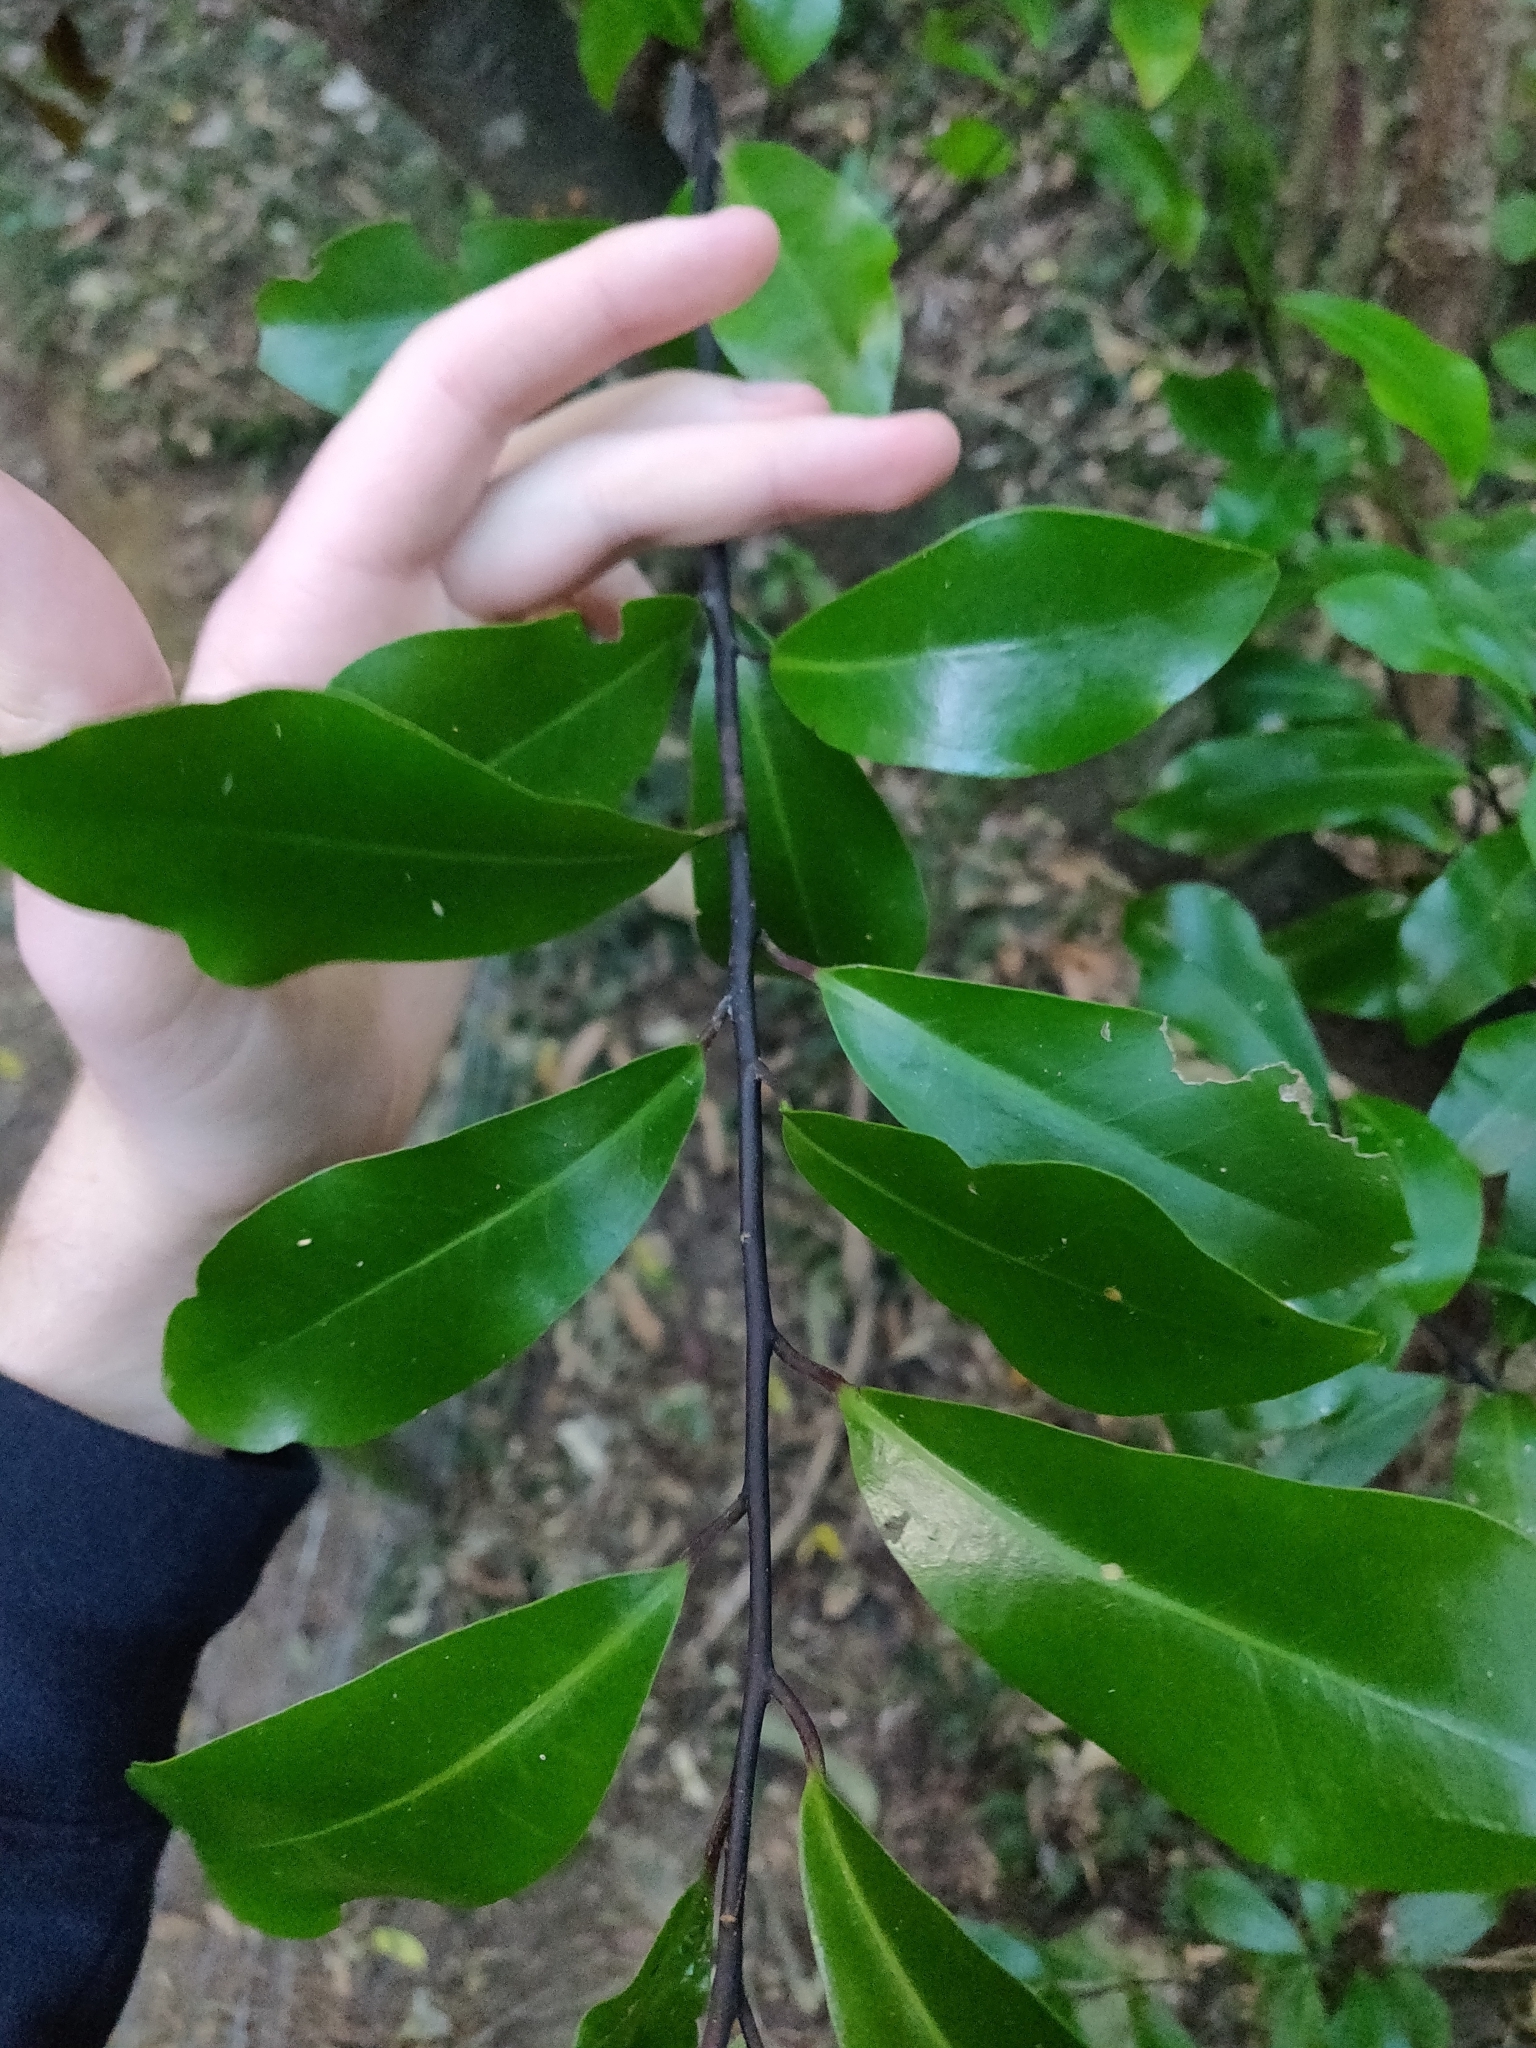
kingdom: Plantae
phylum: Tracheophyta
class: Magnoliopsida
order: Laurales
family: Monimiaceae
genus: Hedycarya
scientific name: Hedycarya arborea
